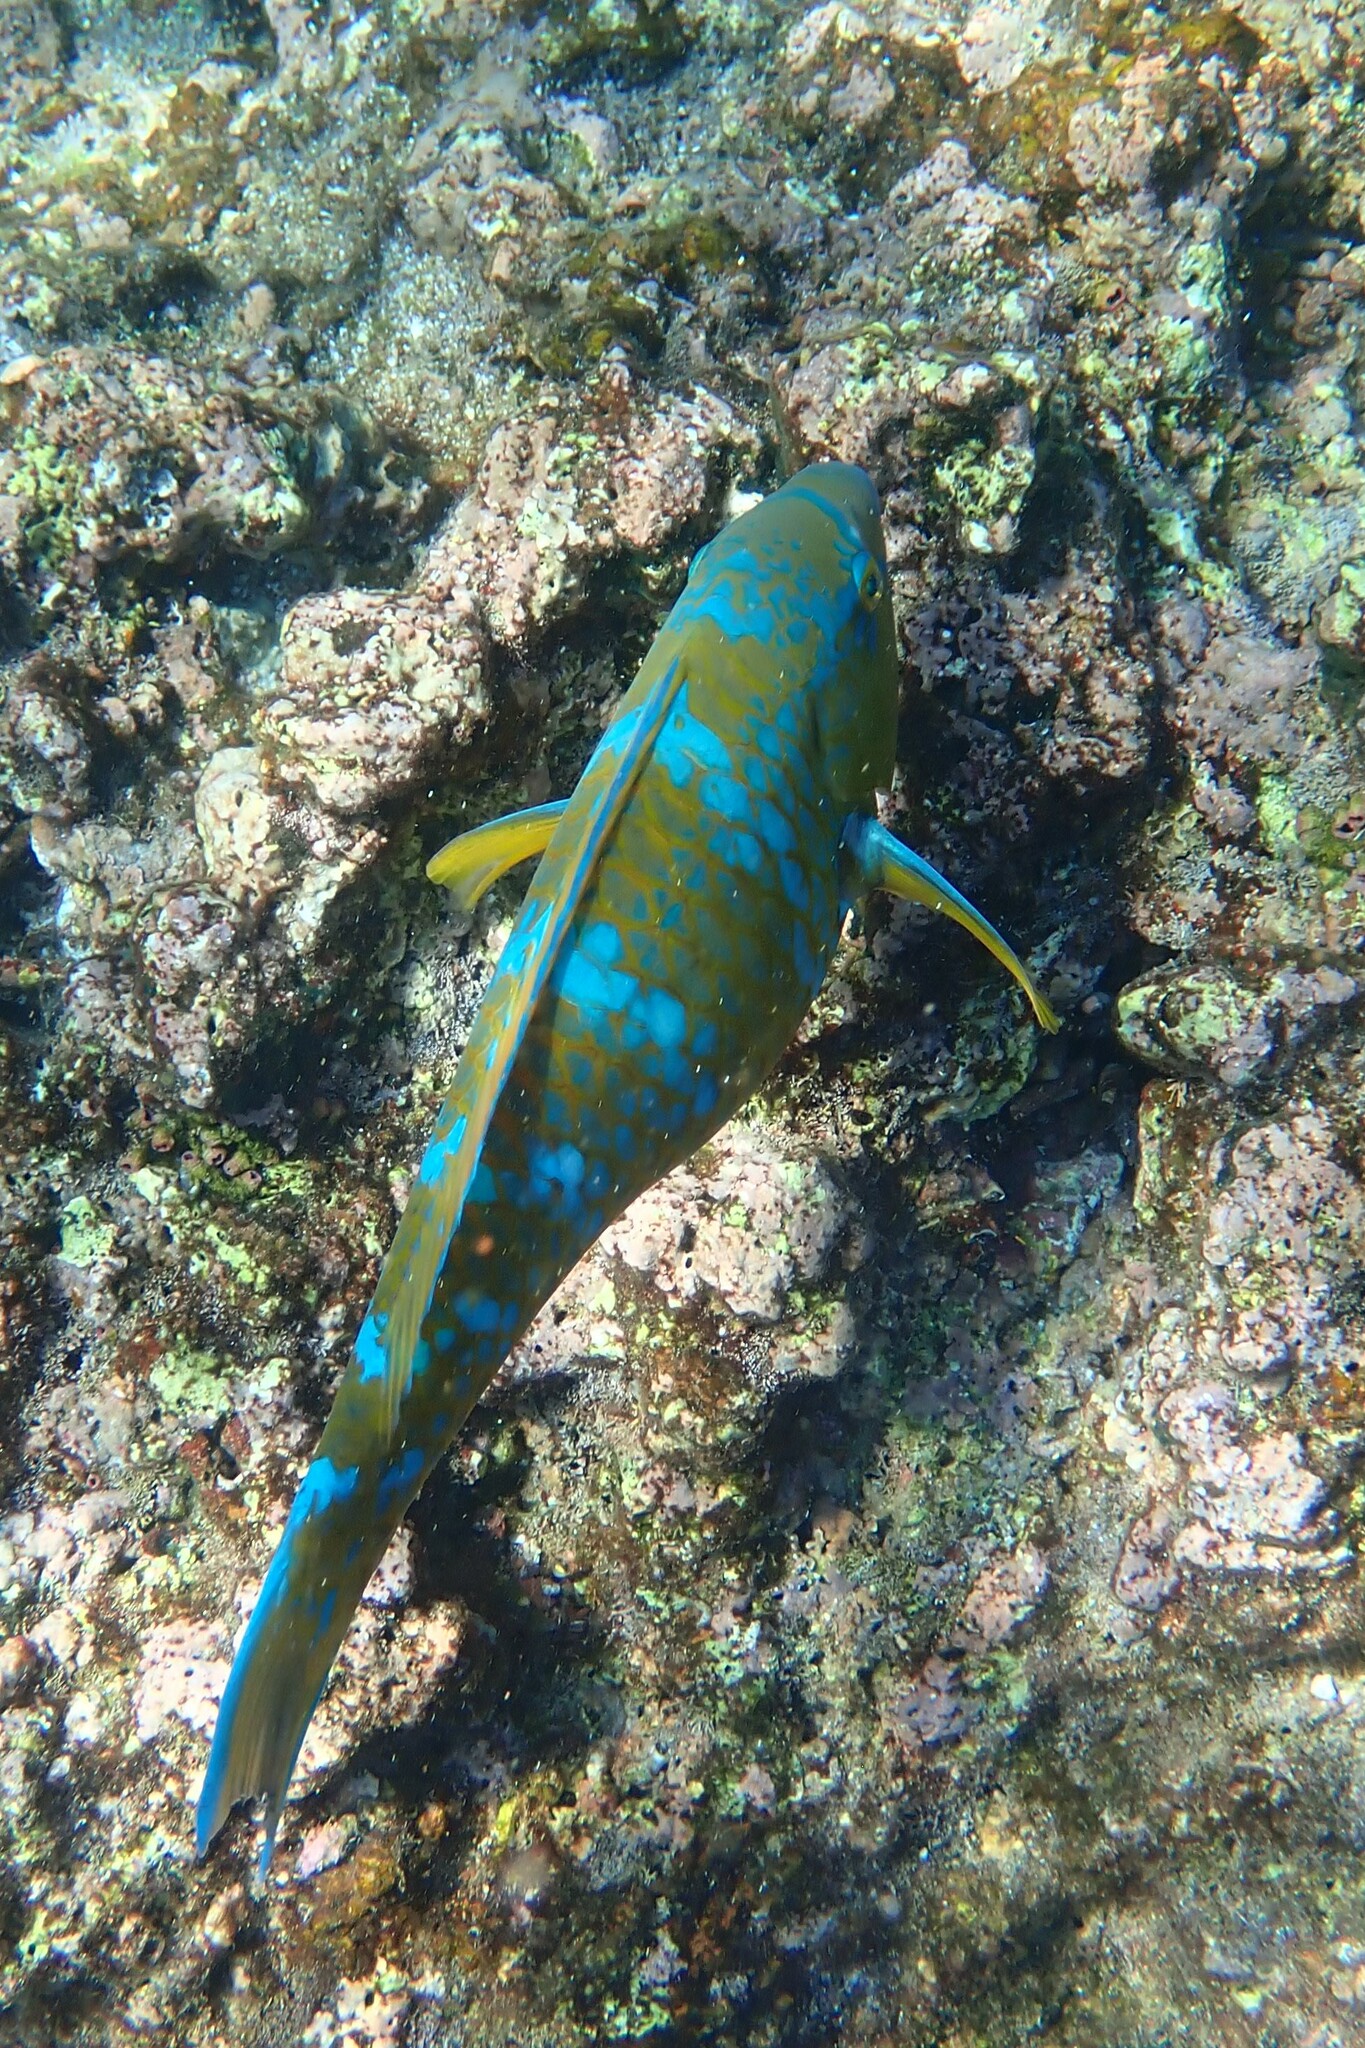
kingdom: Animalia
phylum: Chordata
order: Perciformes
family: Scaridae
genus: Scarus
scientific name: Scarus ghobban
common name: Blue-barred parrotfish
